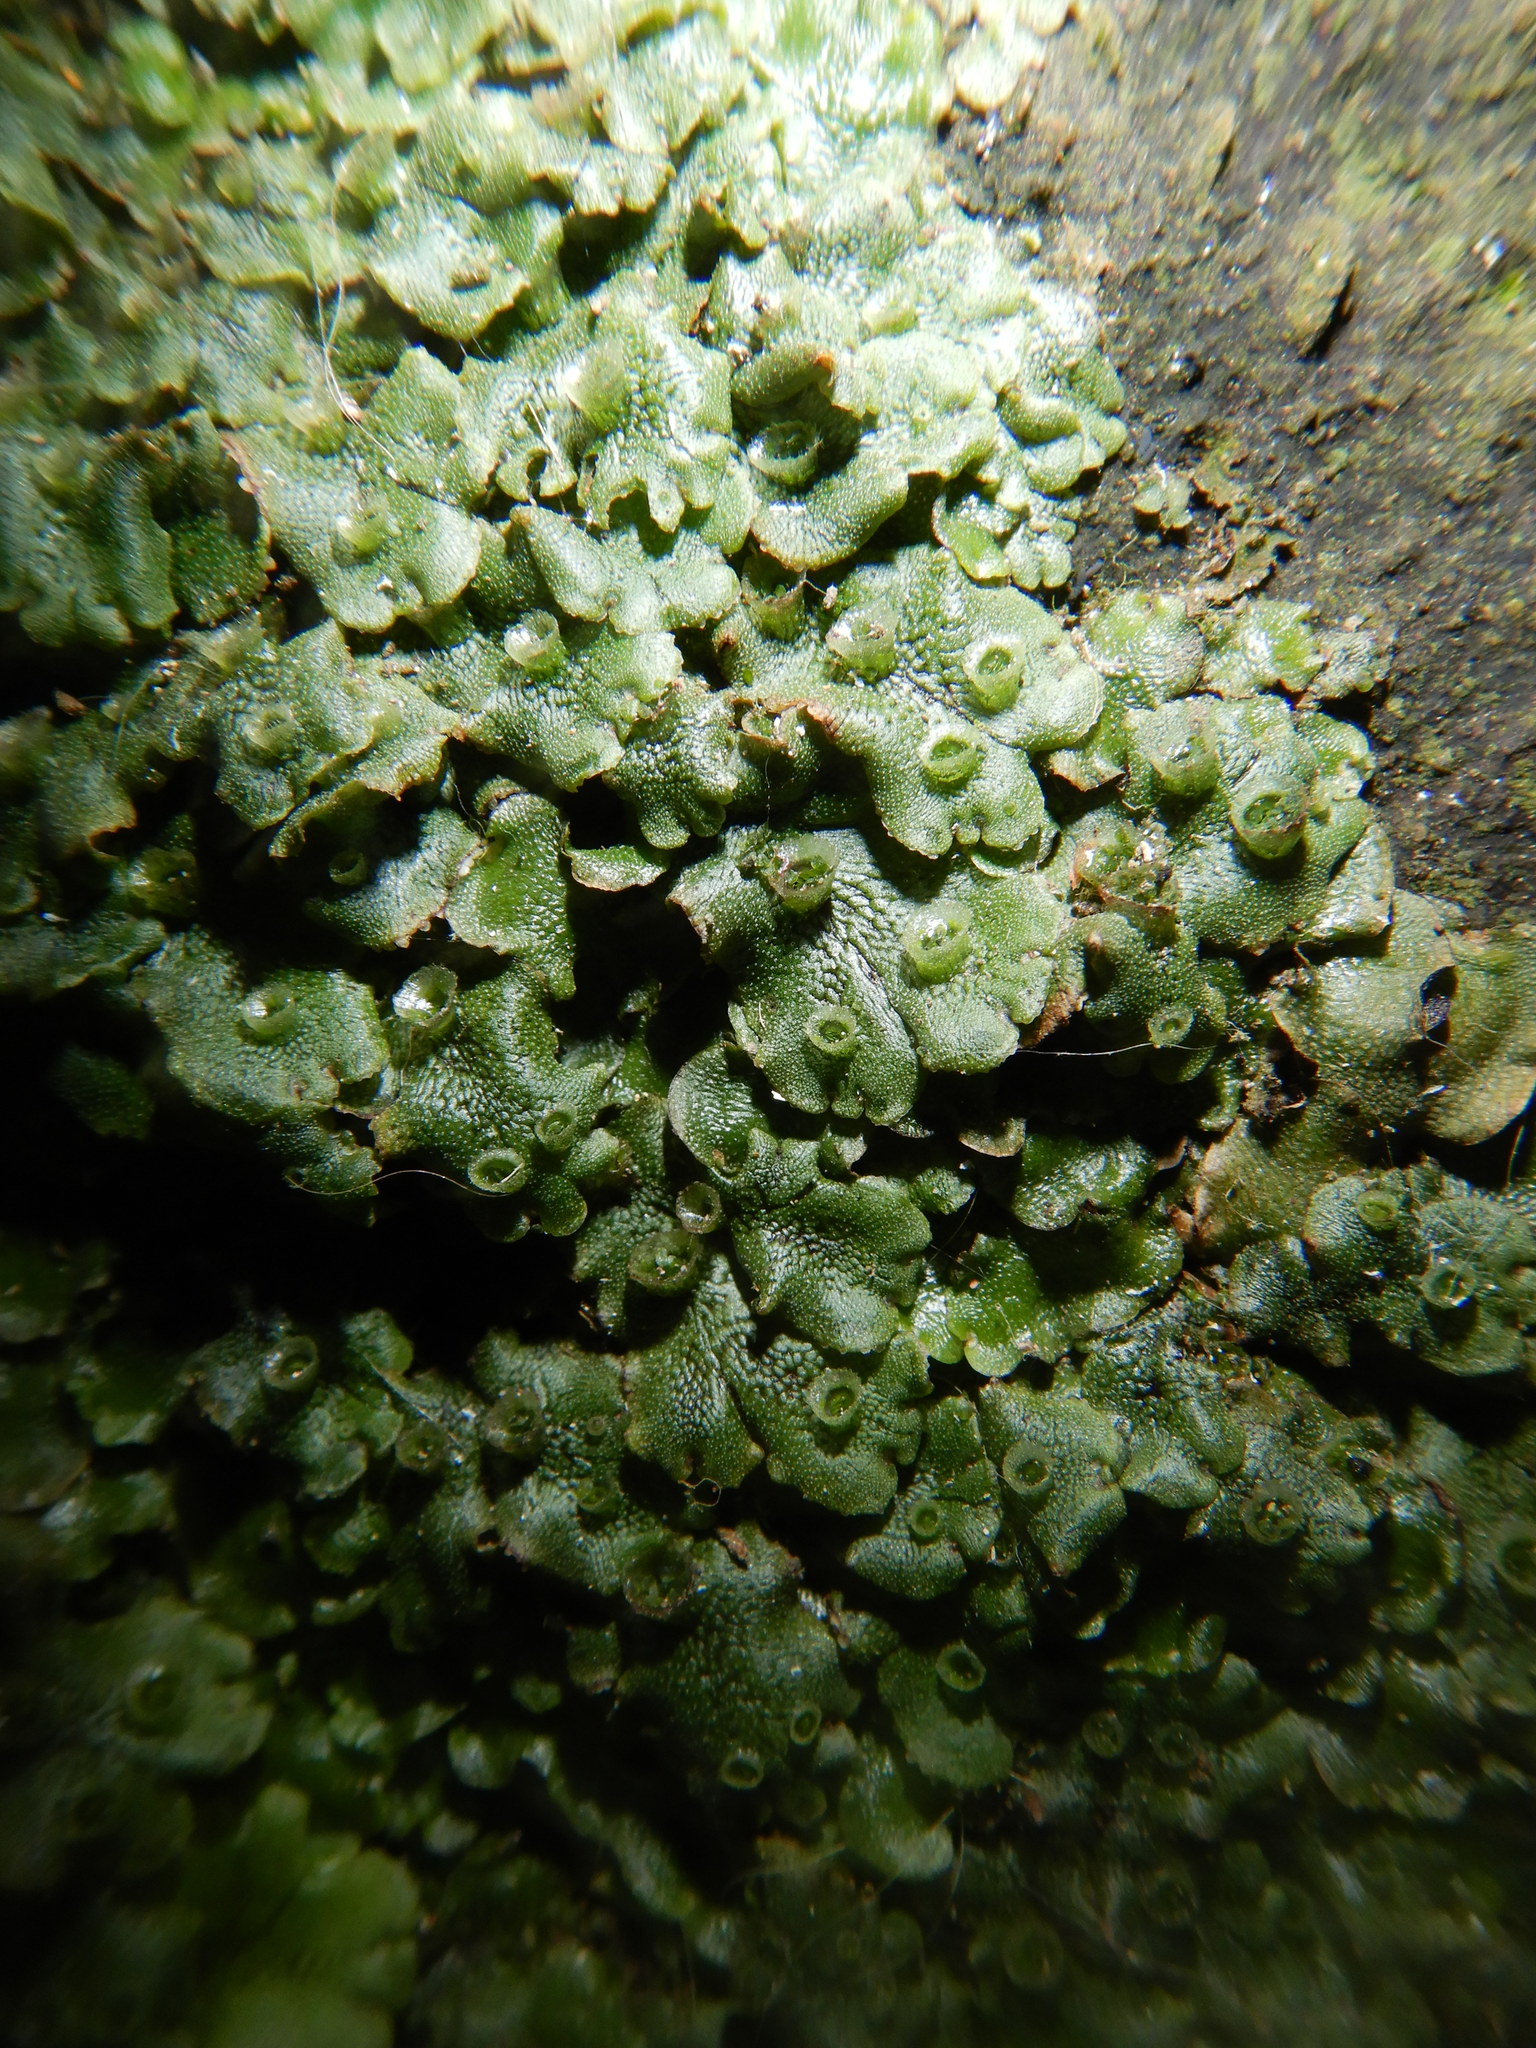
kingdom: Plantae
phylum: Marchantiophyta
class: Marchantiopsida
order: Marchantiales
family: Marchantiaceae
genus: Marchantia
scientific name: Marchantia polymorpha
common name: Common liverwort
